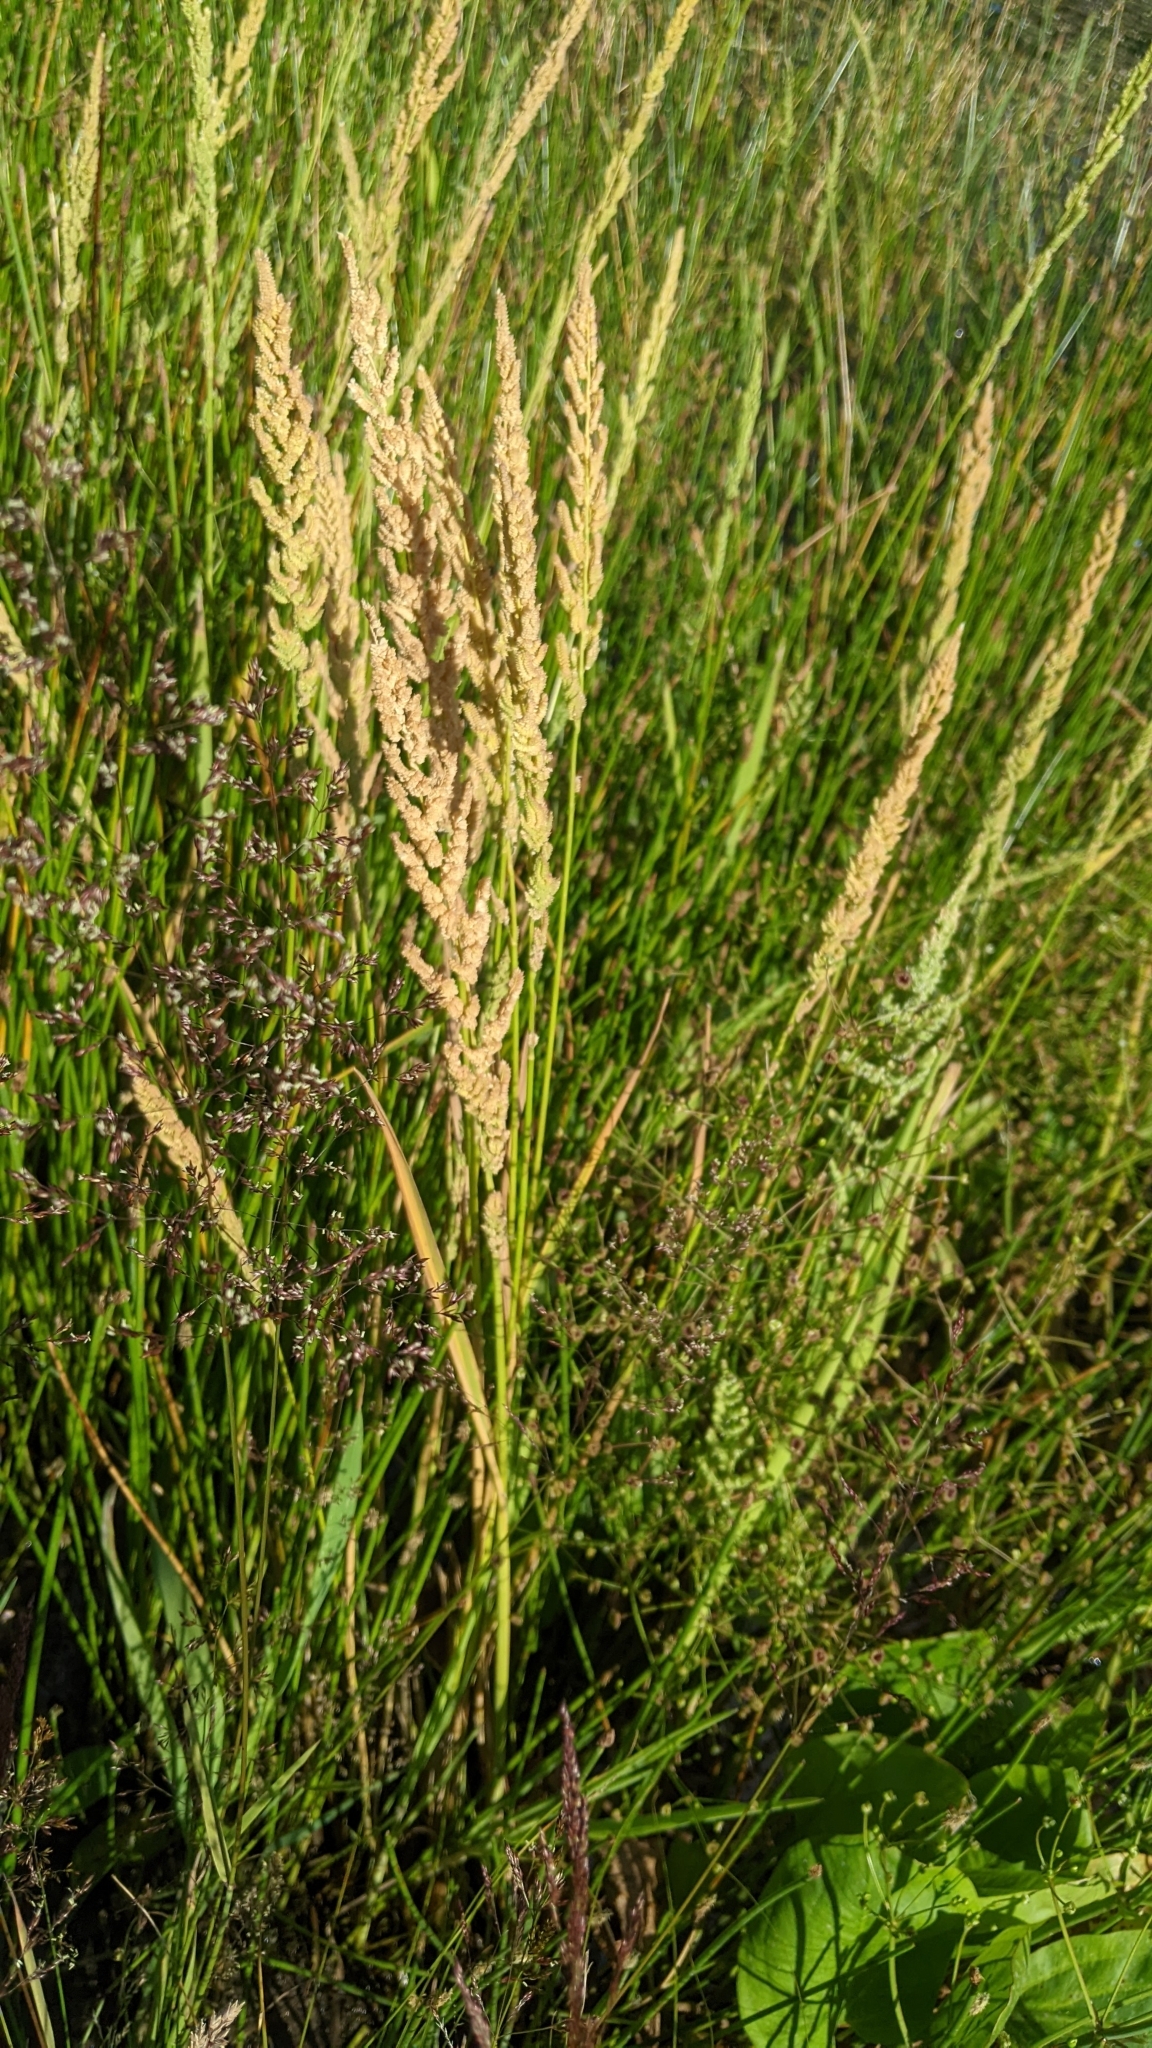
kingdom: Plantae
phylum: Tracheophyta
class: Liliopsida
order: Poales
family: Poaceae
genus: Beckmannia
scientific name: Beckmannia syzigachne
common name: American slough-grass
